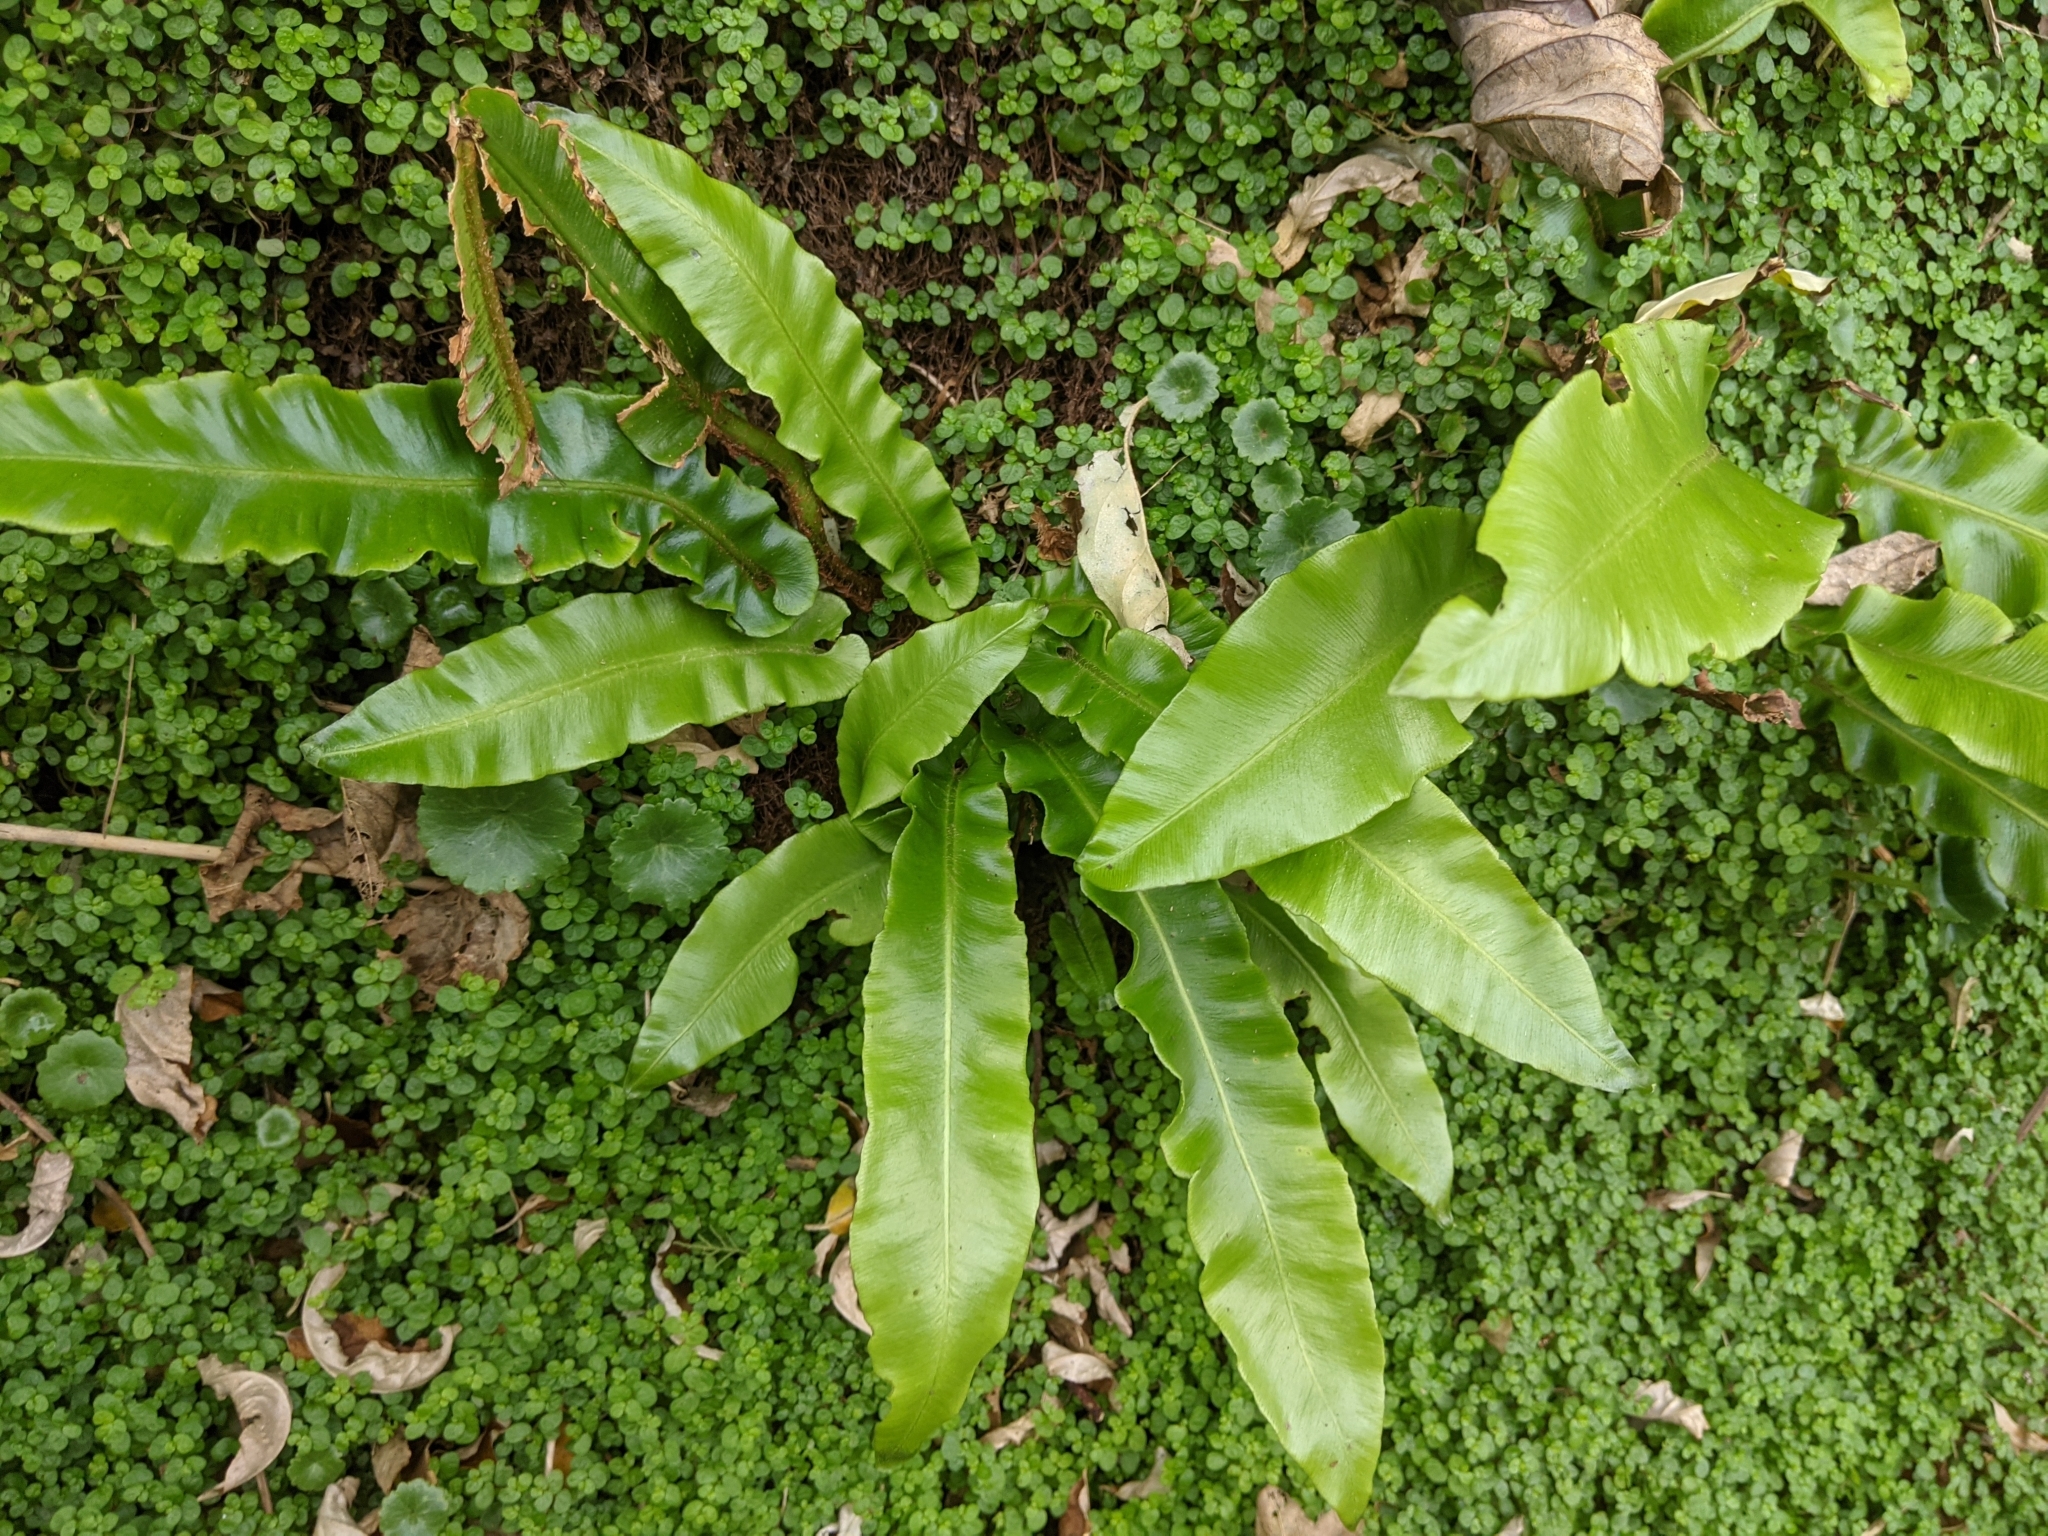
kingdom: Plantae
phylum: Tracheophyta
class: Polypodiopsida
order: Polypodiales
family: Aspleniaceae
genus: Asplenium
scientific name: Asplenium scolopendrium
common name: Hart's-tongue fern
